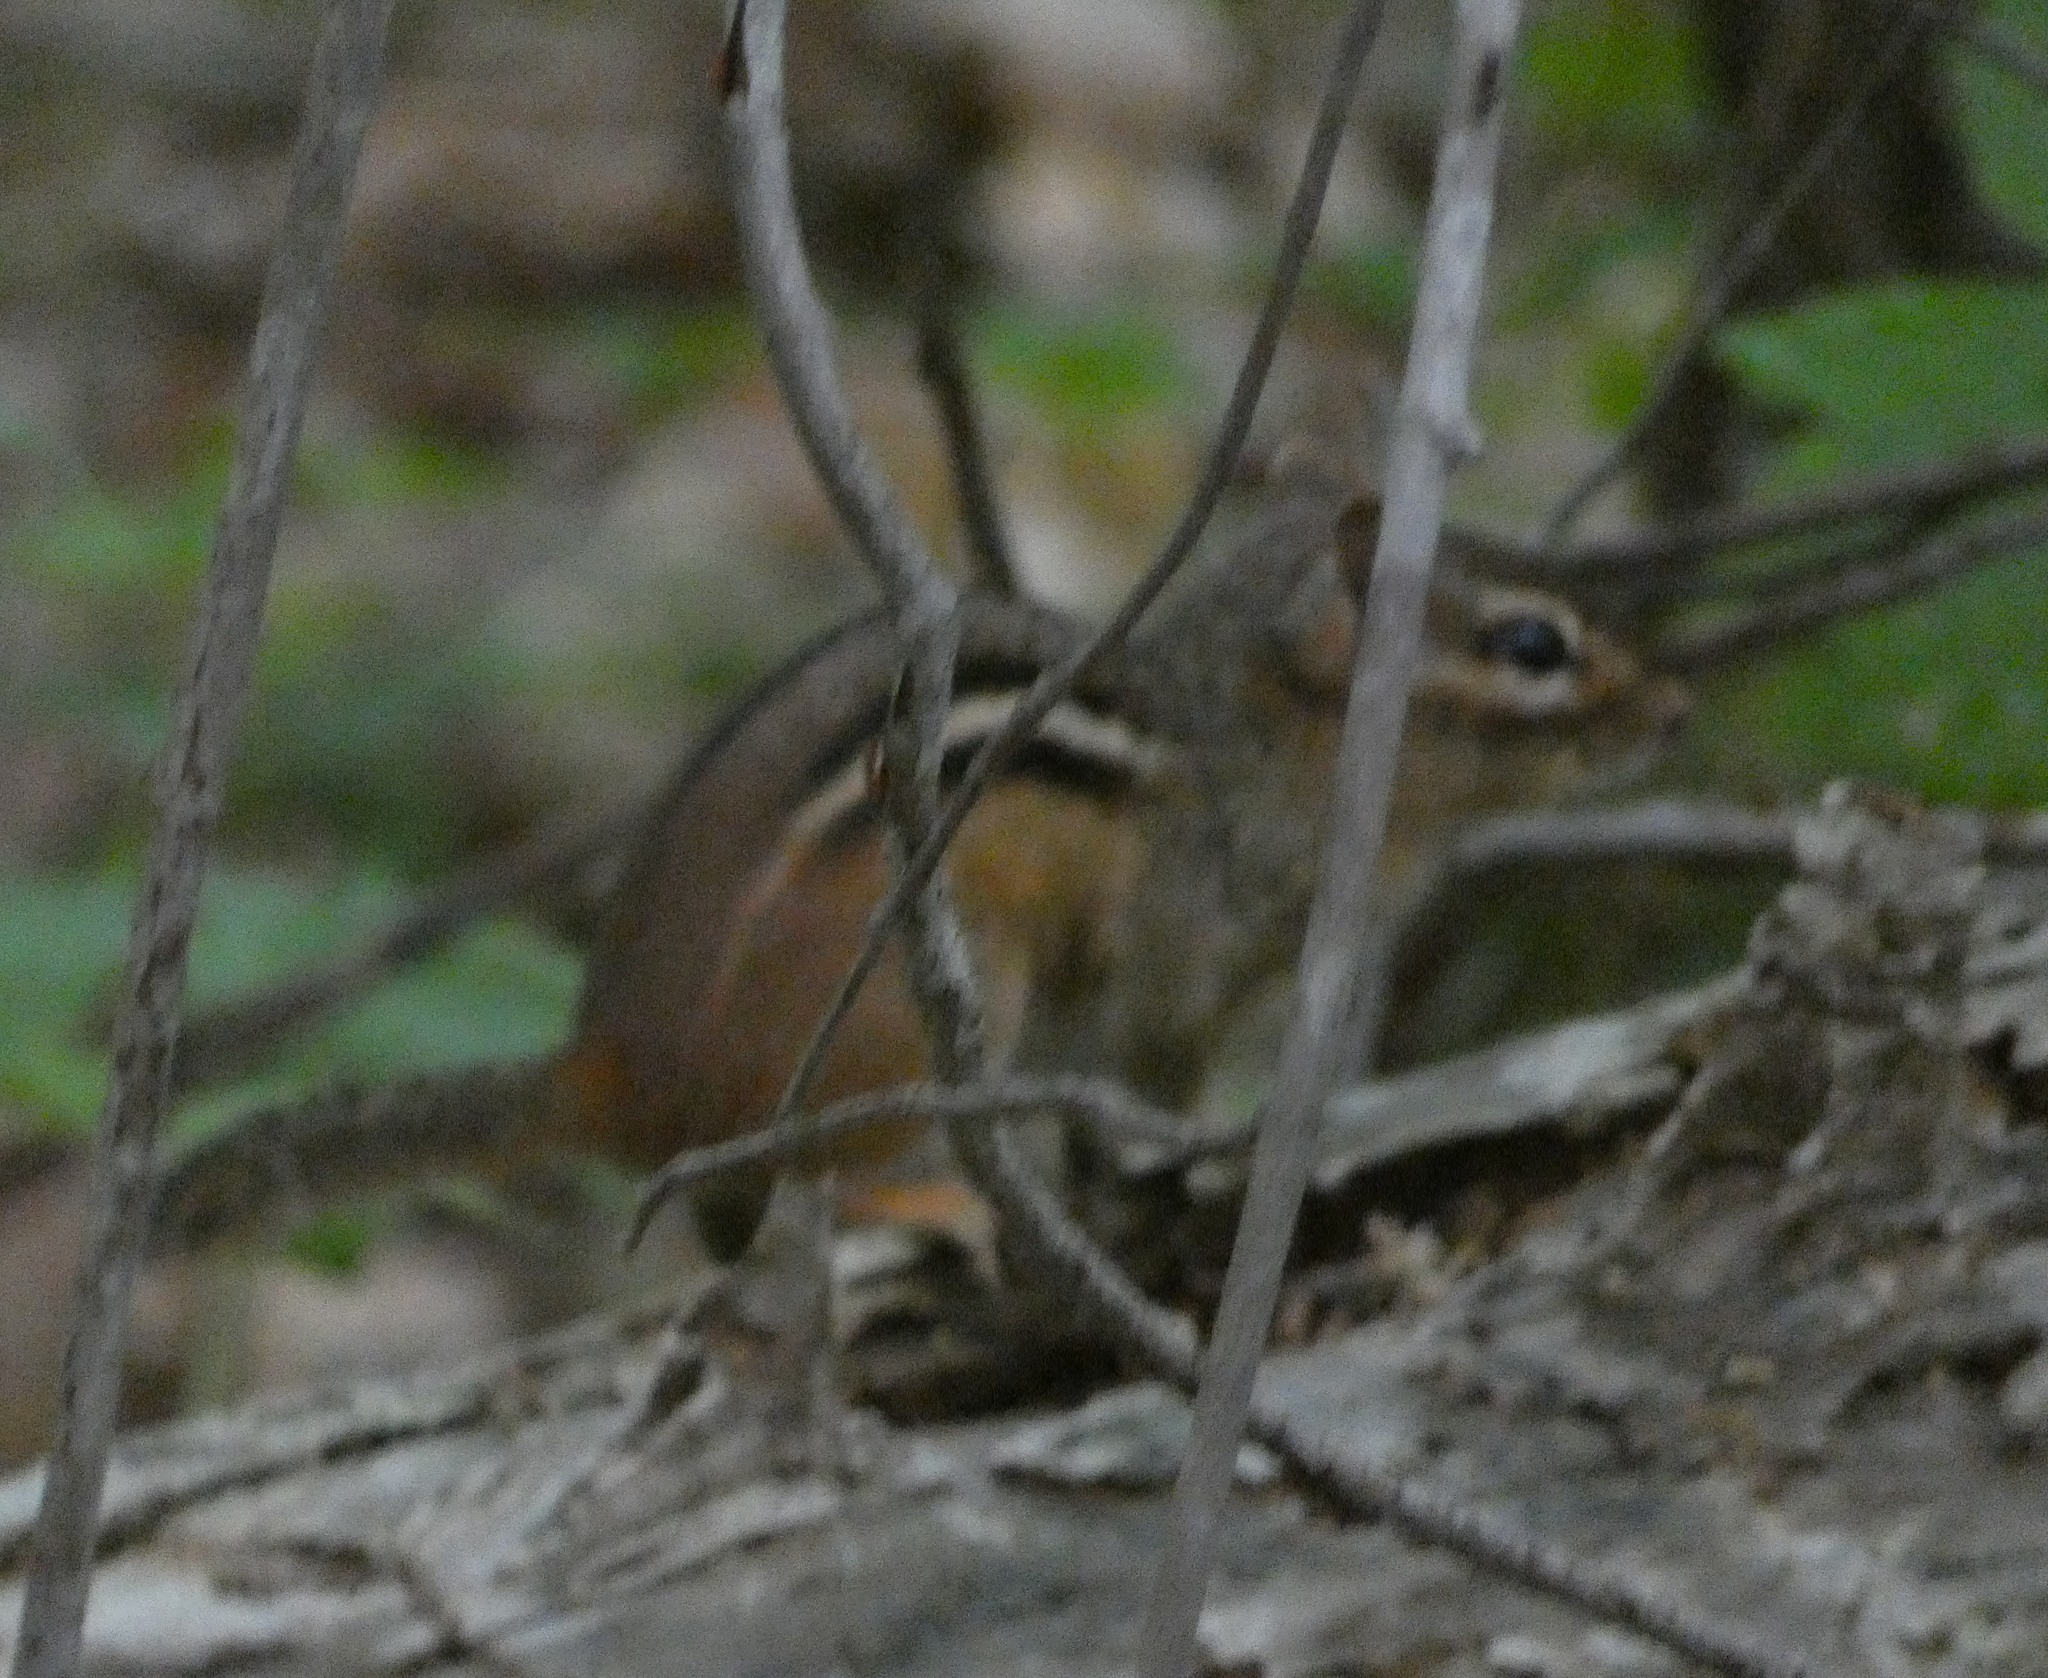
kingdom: Animalia
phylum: Chordata
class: Mammalia
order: Rodentia
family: Sciuridae
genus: Tamias
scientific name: Tamias striatus
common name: Eastern chipmunk
